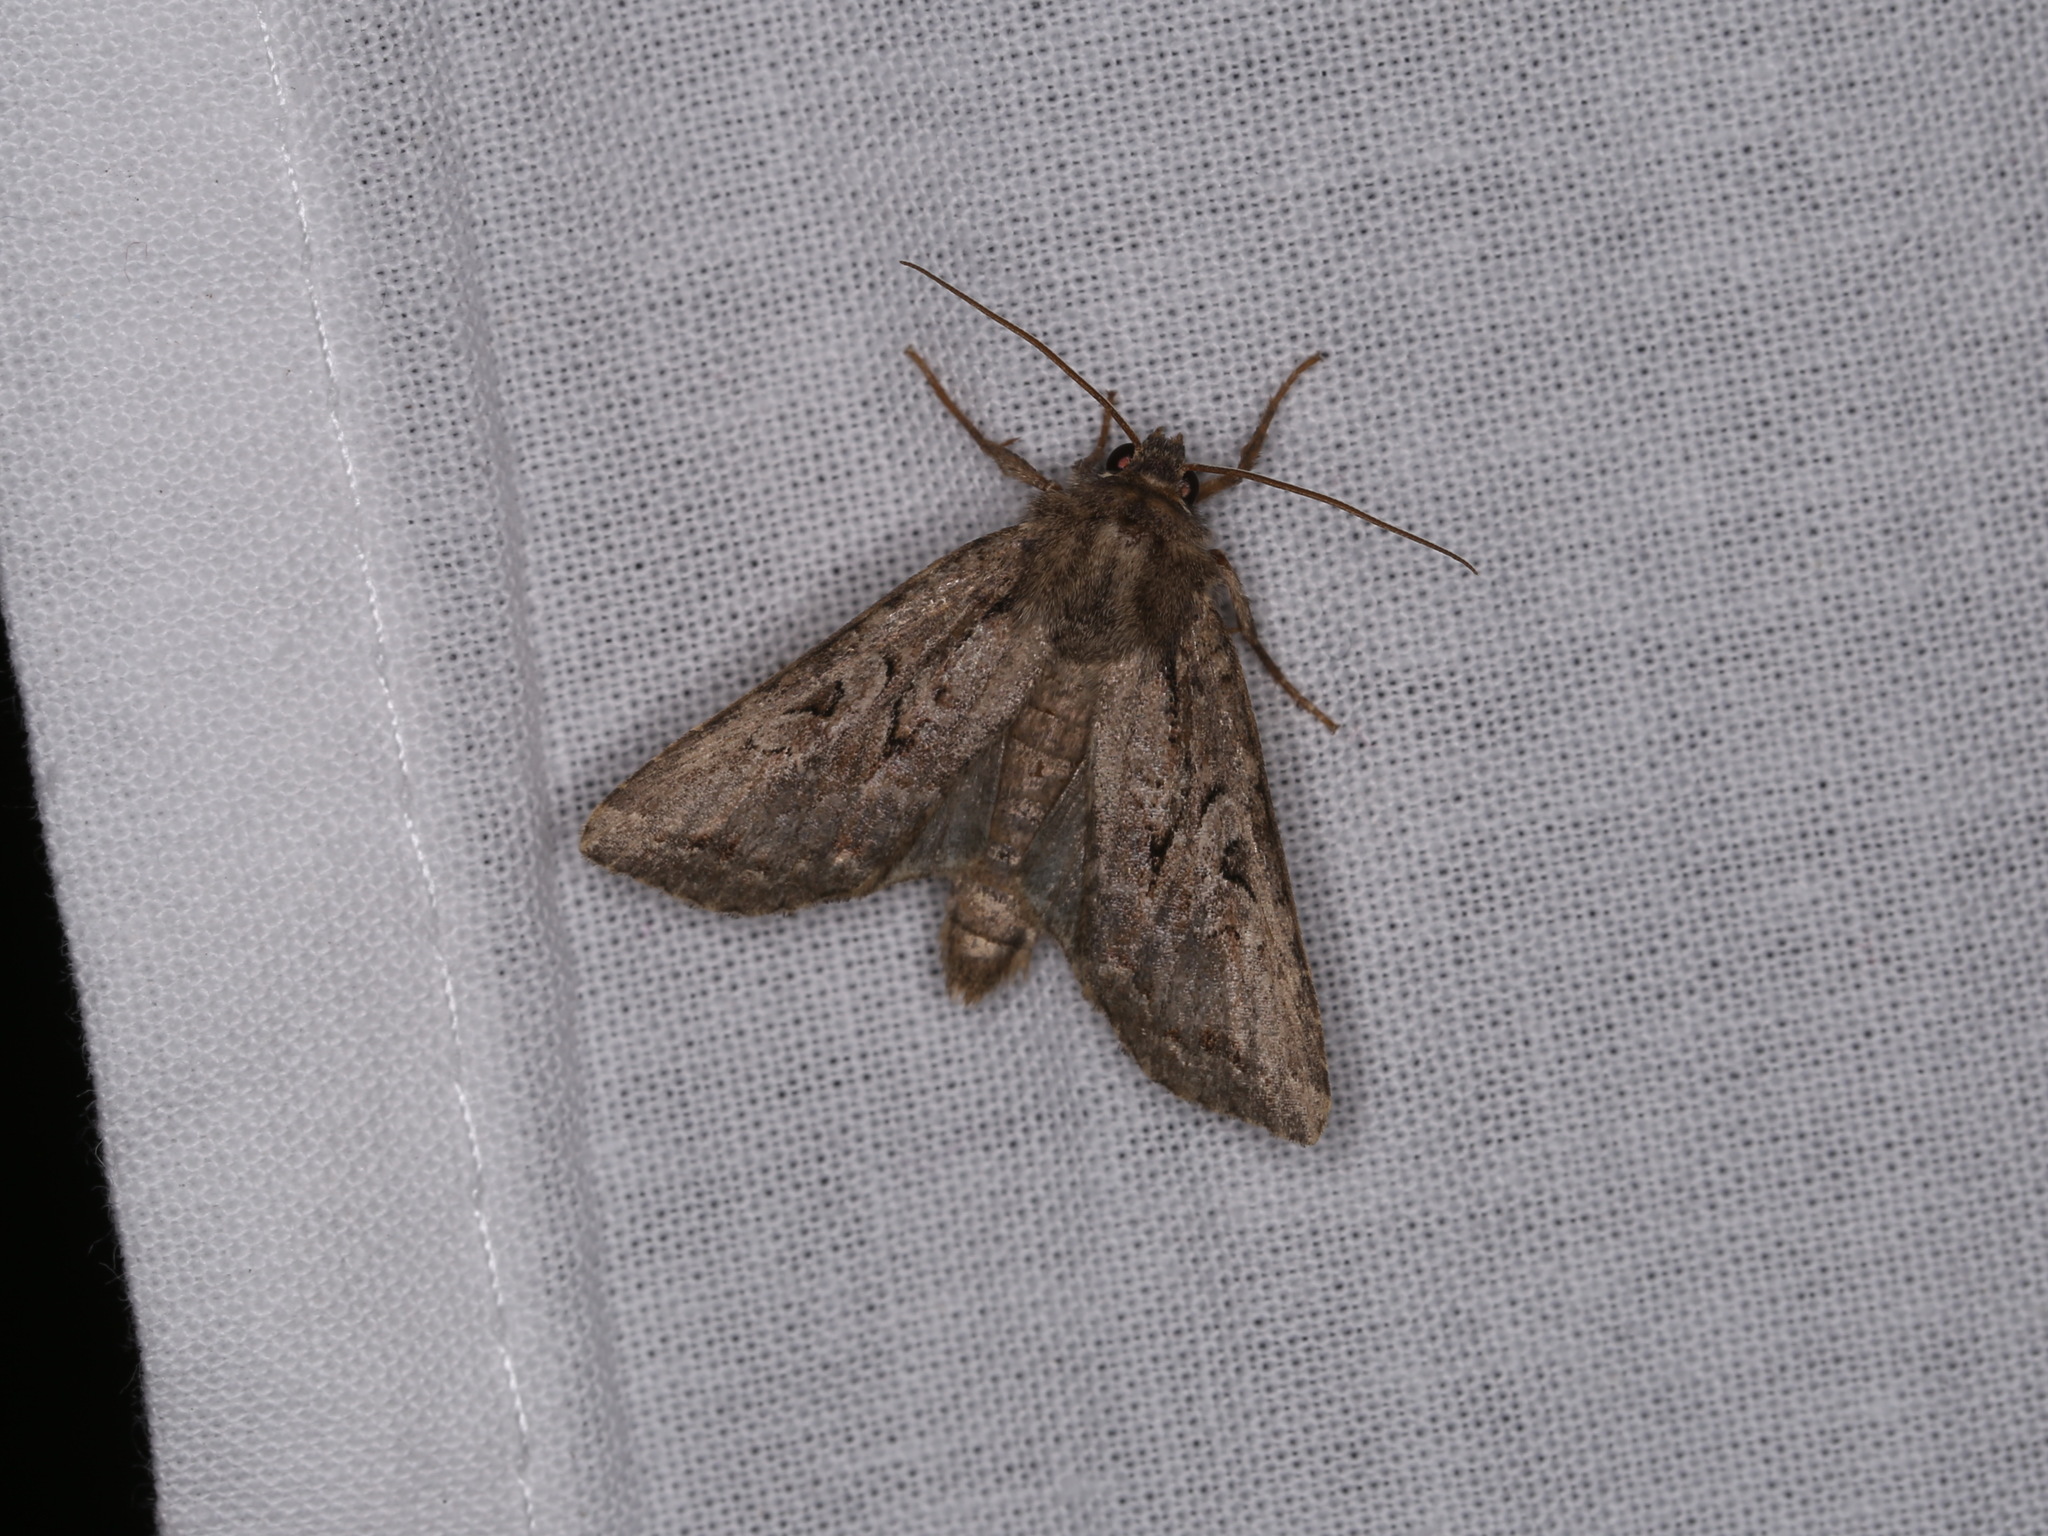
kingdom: Animalia
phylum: Arthropoda
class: Insecta
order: Lepidoptera
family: Noctuidae
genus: Apterogenum
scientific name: Apterogenum ypsillon
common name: Dingy shears
